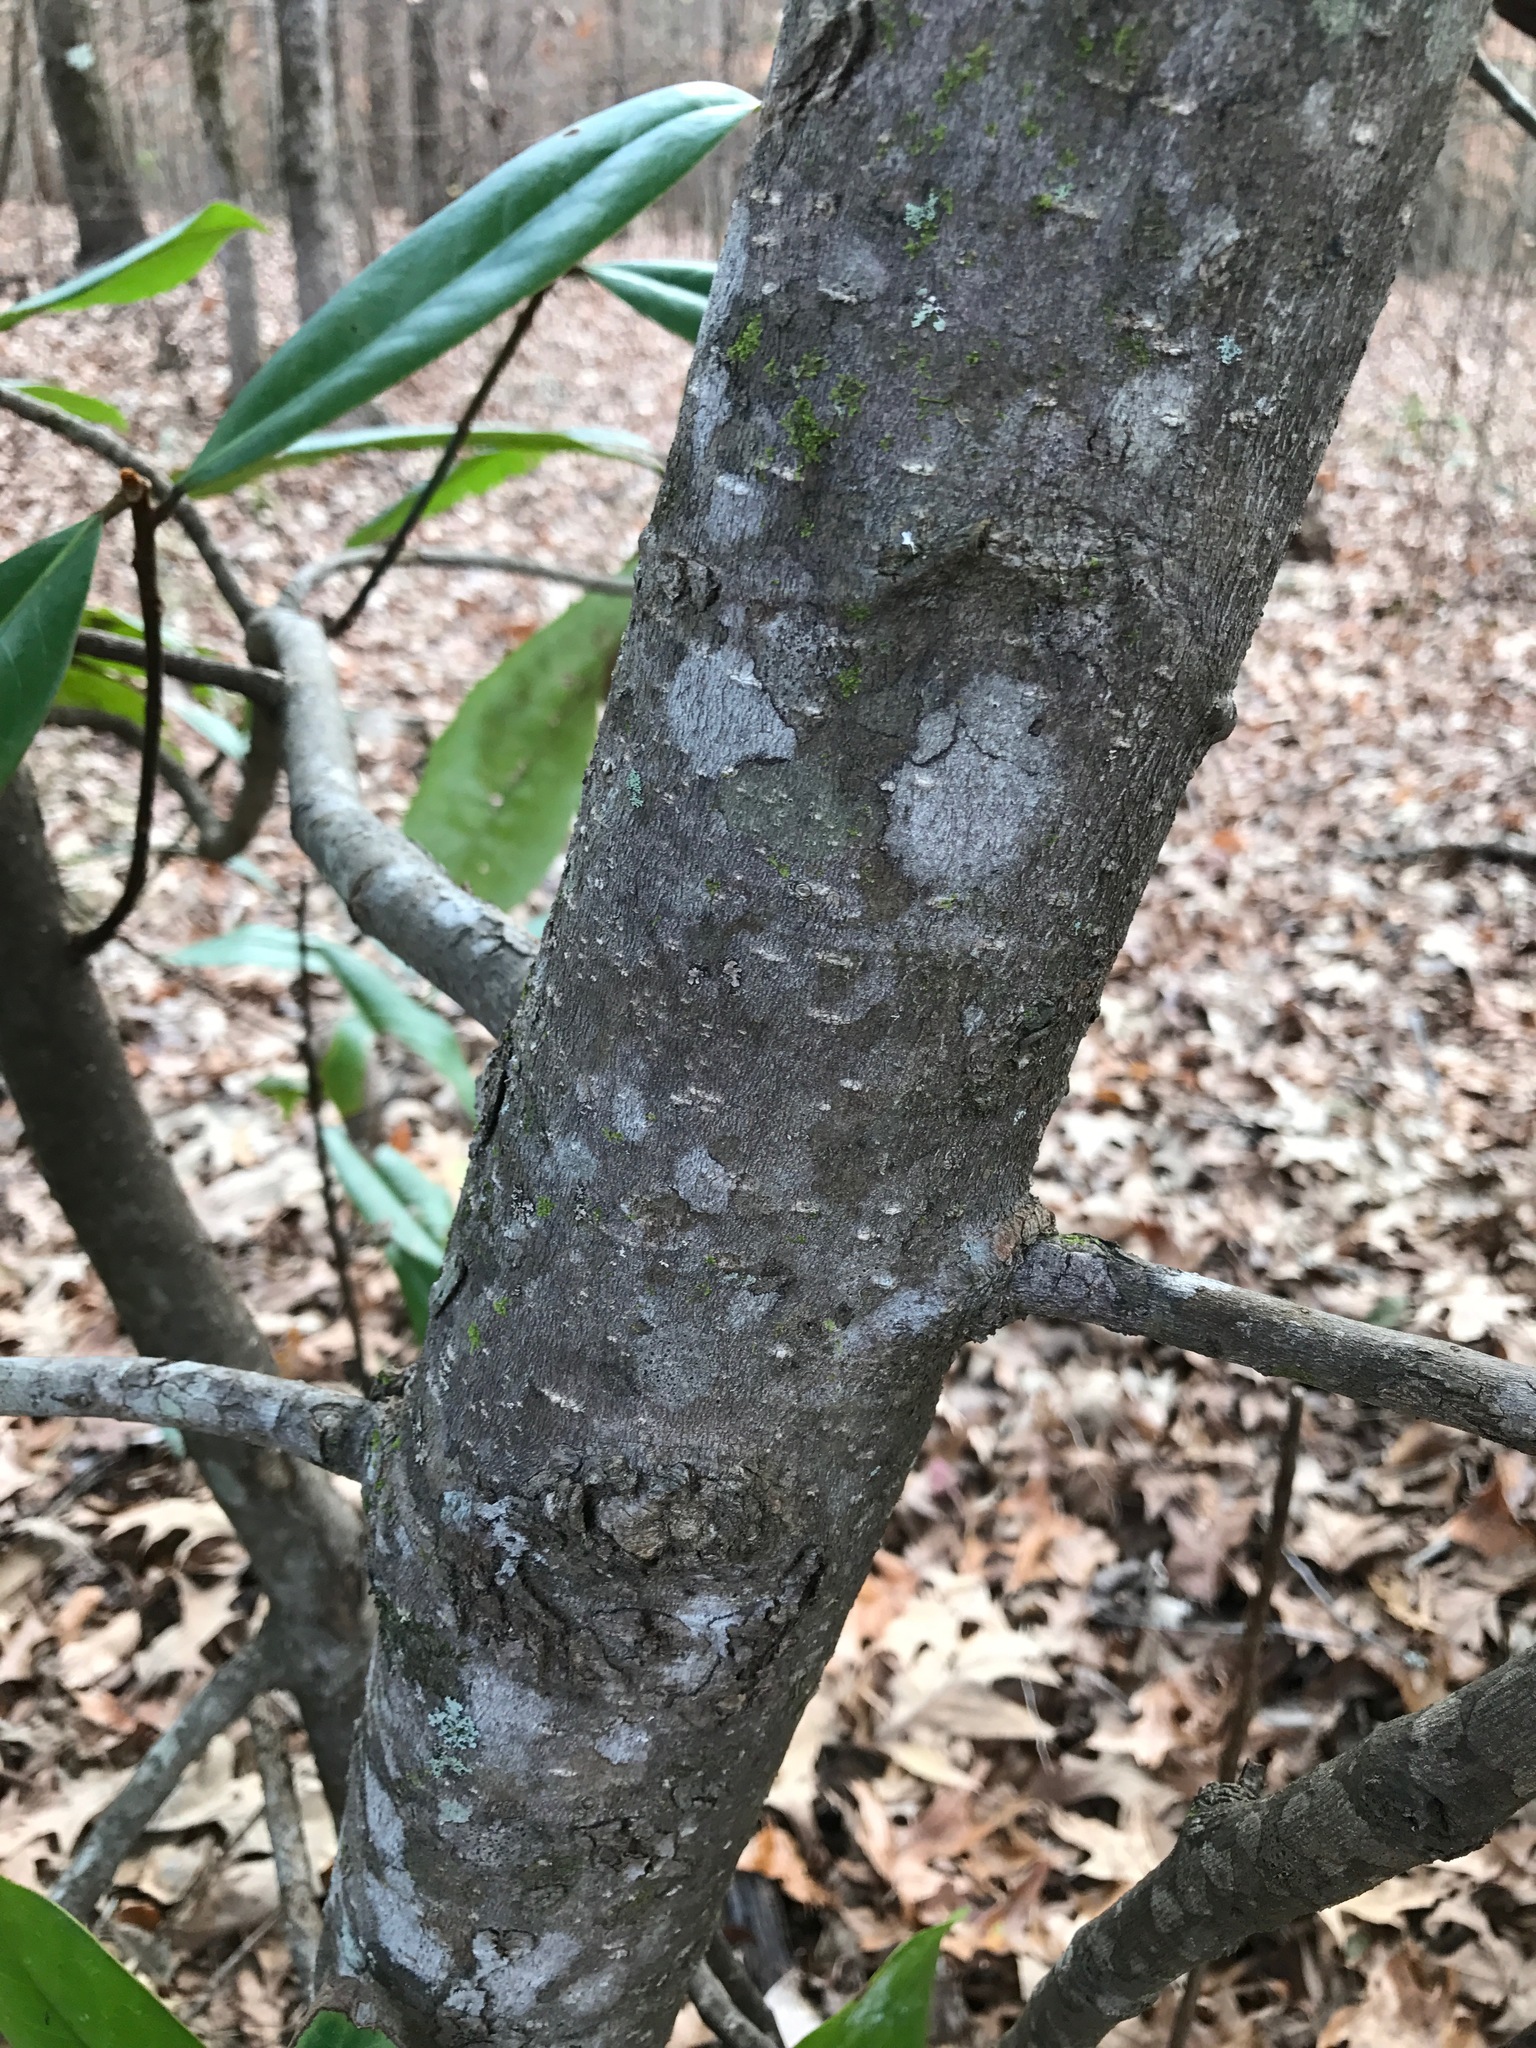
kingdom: Plantae
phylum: Tracheophyta
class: Magnoliopsida
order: Magnoliales
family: Magnoliaceae
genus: Magnolia
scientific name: Magnolia grandiflora
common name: Southern magnolia
